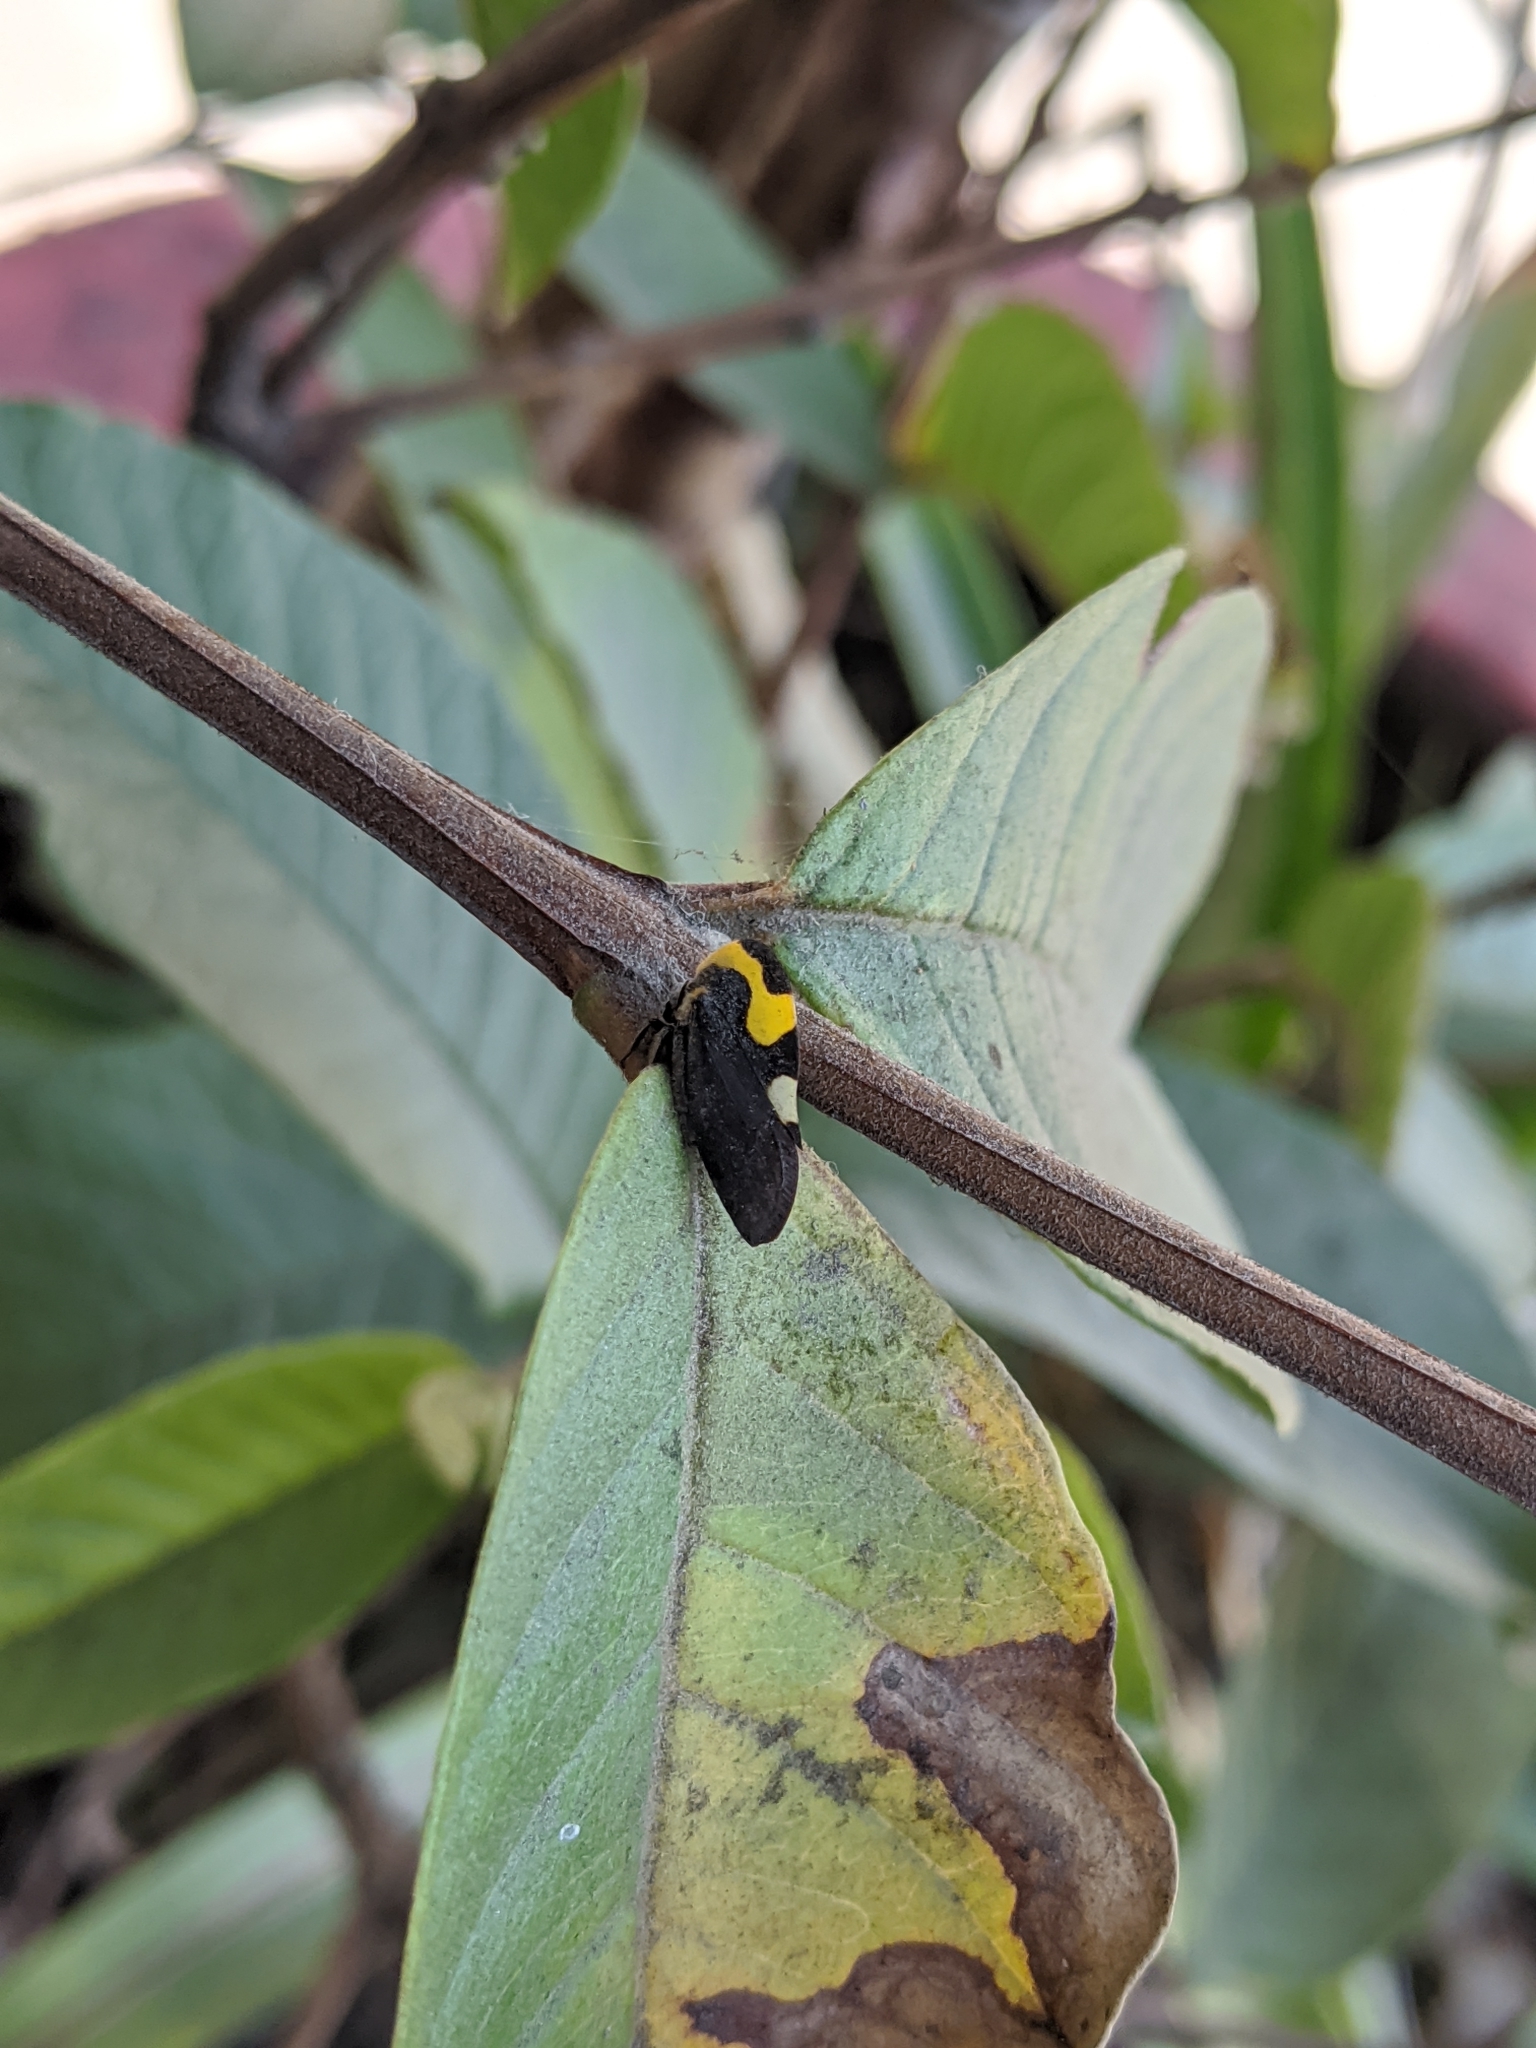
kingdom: Animalia
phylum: Arthropoda
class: Insecta
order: Hemiptera
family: Membracidae
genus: Membracis
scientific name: Membracis mexicana
